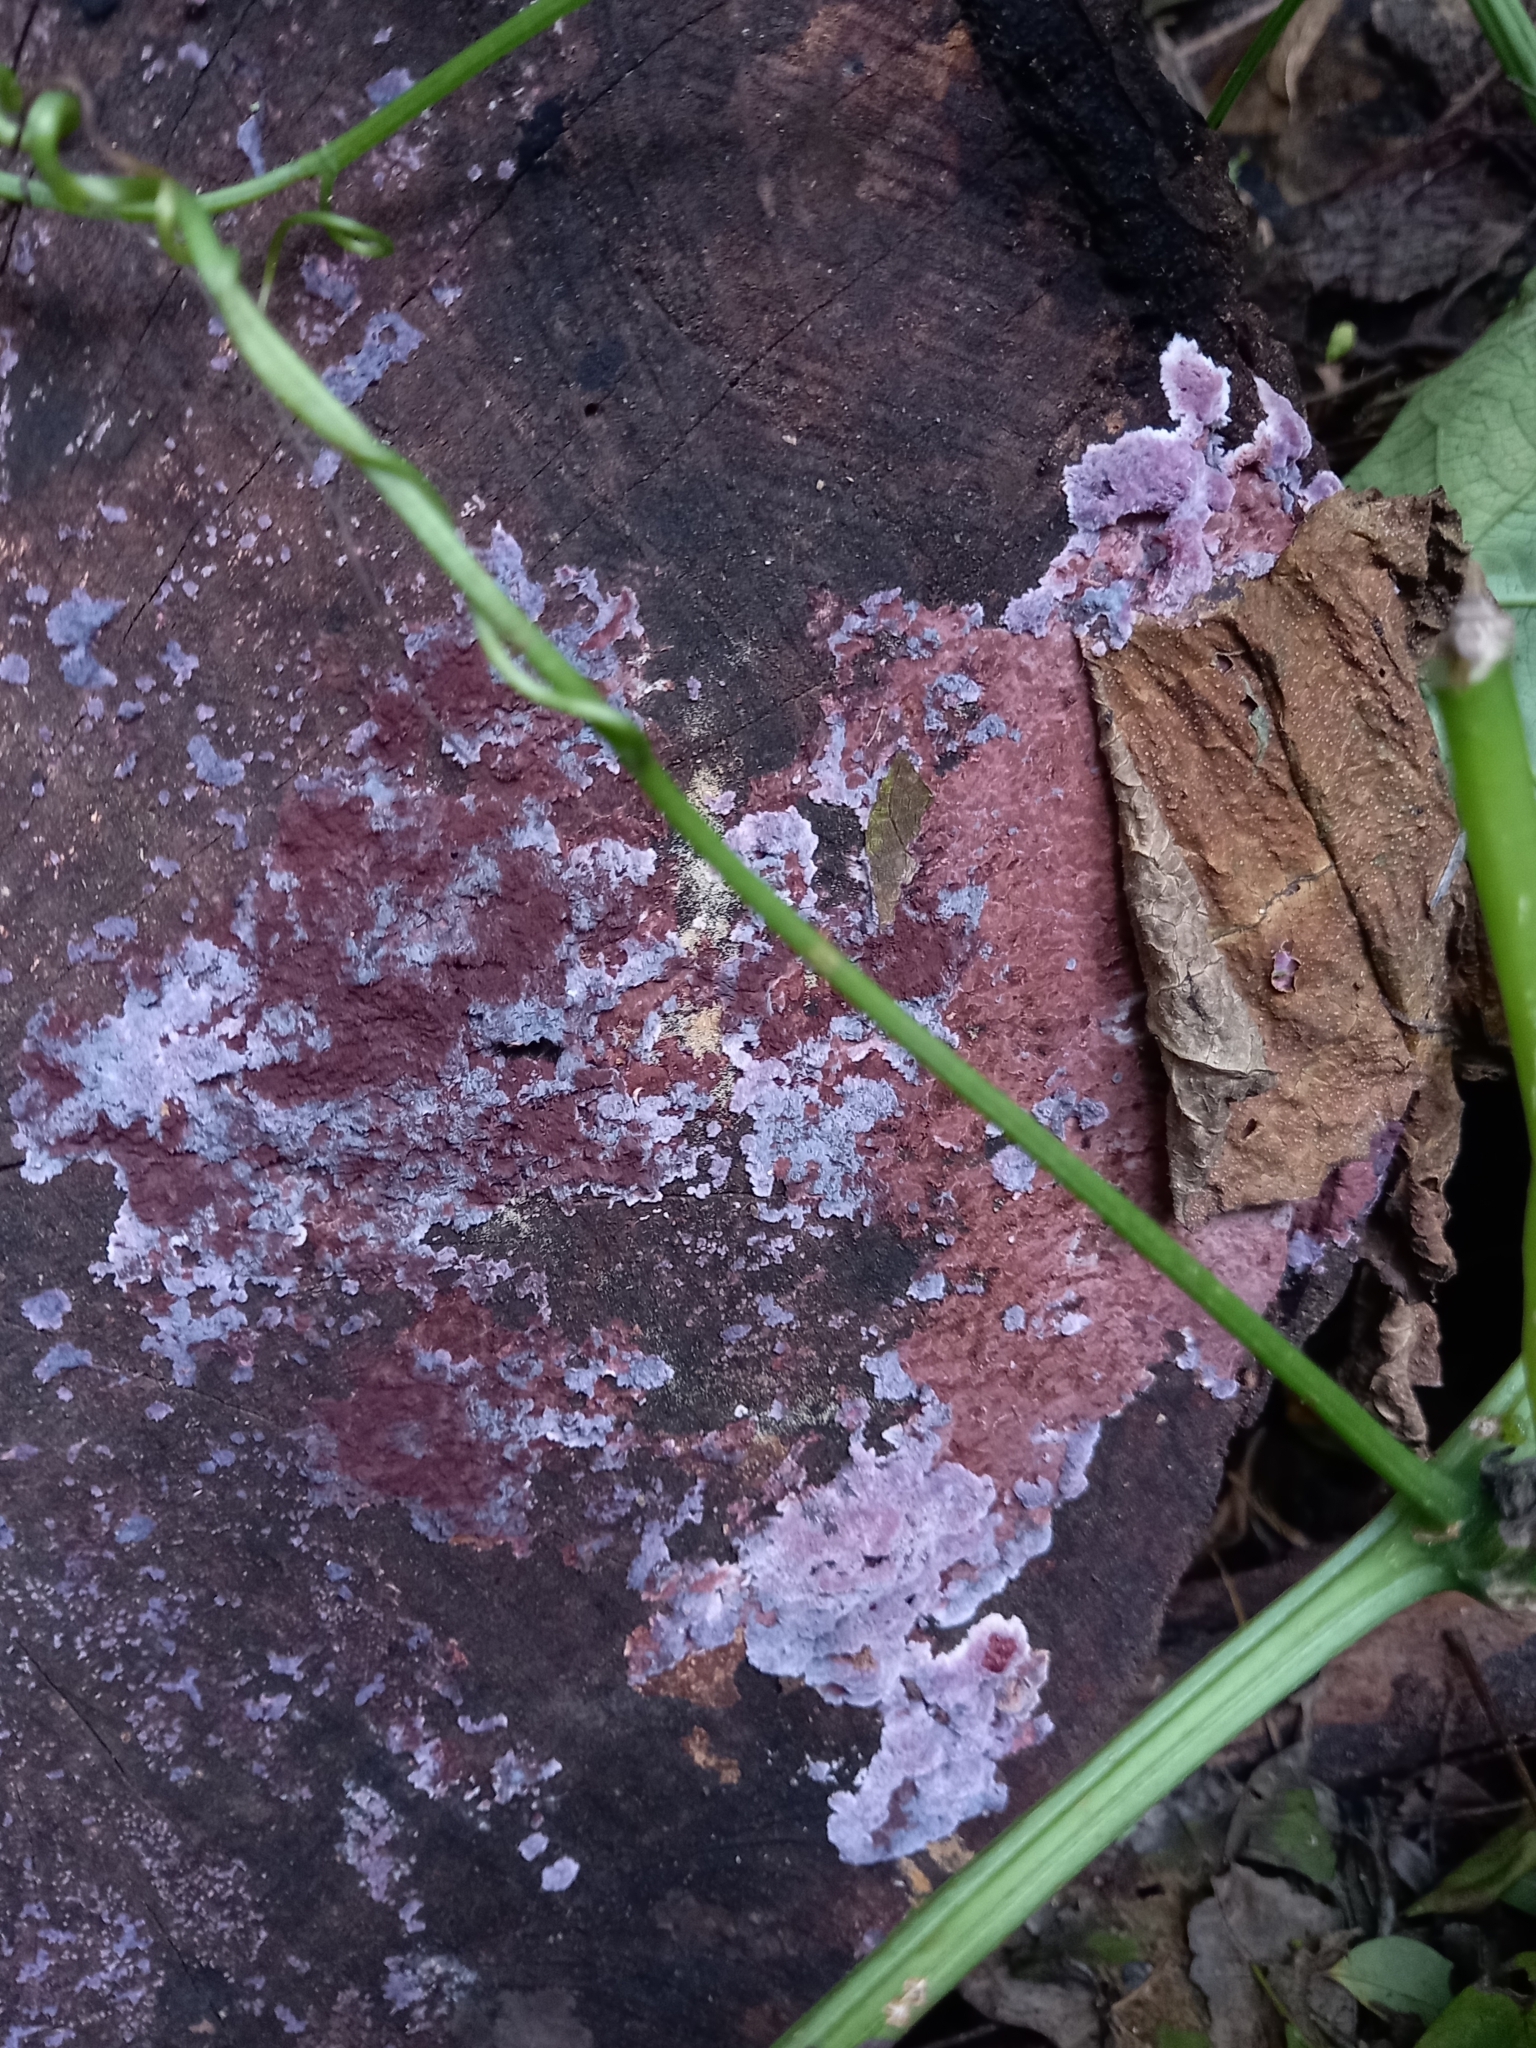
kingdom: Fungi
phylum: Basidiomycota
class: Agaricomycetes
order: Corticiales
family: Punctulariaceae
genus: Punctularia
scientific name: Punctularia atropurpurascens
